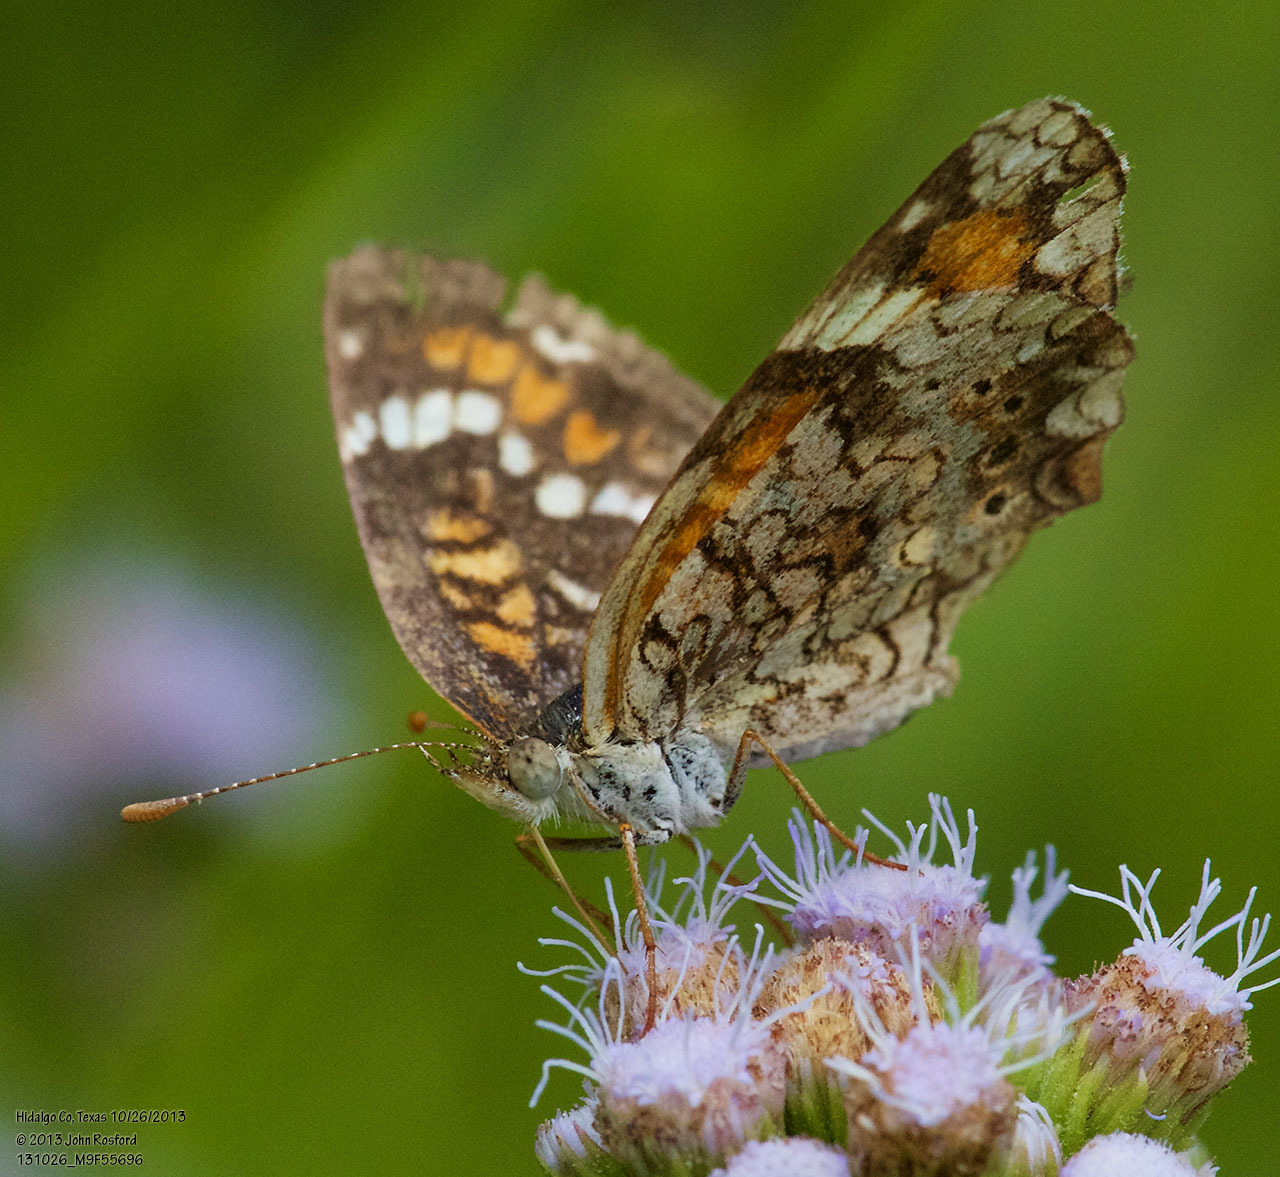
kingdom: Animalia
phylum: Arthropoda
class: Insecta
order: Lepidoptera
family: Nymphalidae
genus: Phyciodes
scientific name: Phyciodes phaon
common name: Phaon crescent
